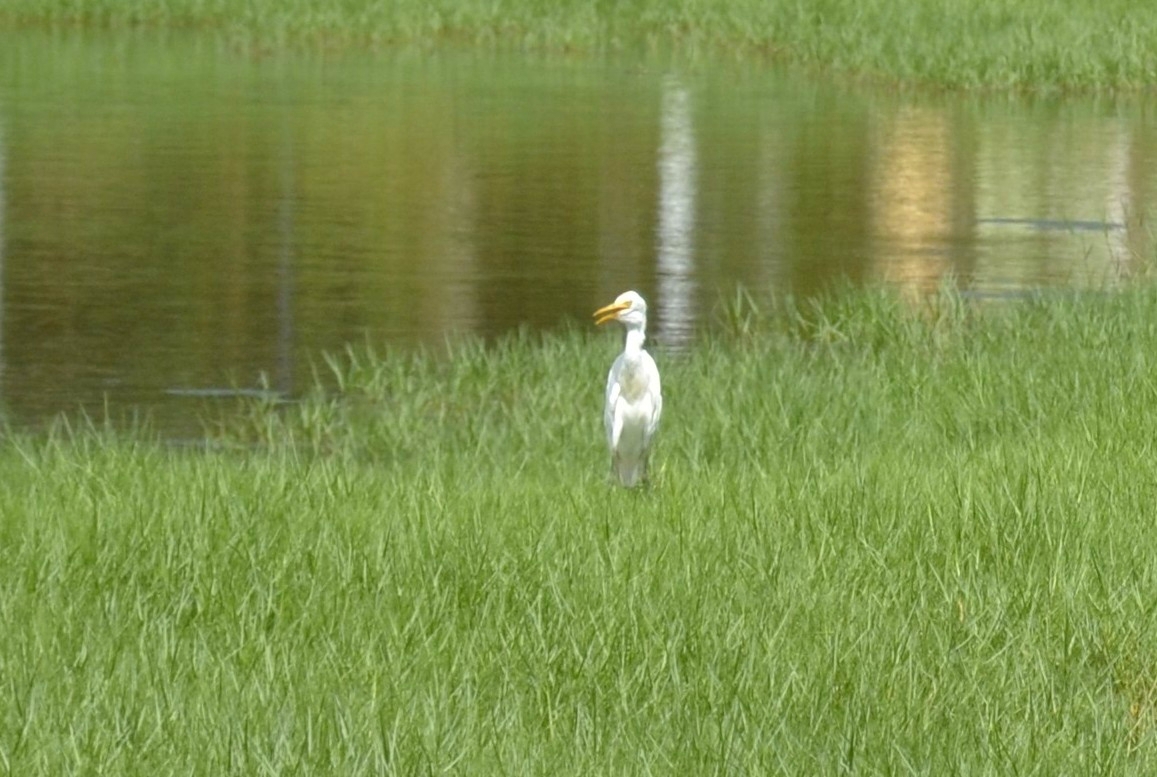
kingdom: Animalia
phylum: Chordata
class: Aves
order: Pelecaniformes
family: Ardeidae
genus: Bubulcus
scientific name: Bubulcus coromandus
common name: Eastern cattle egret
